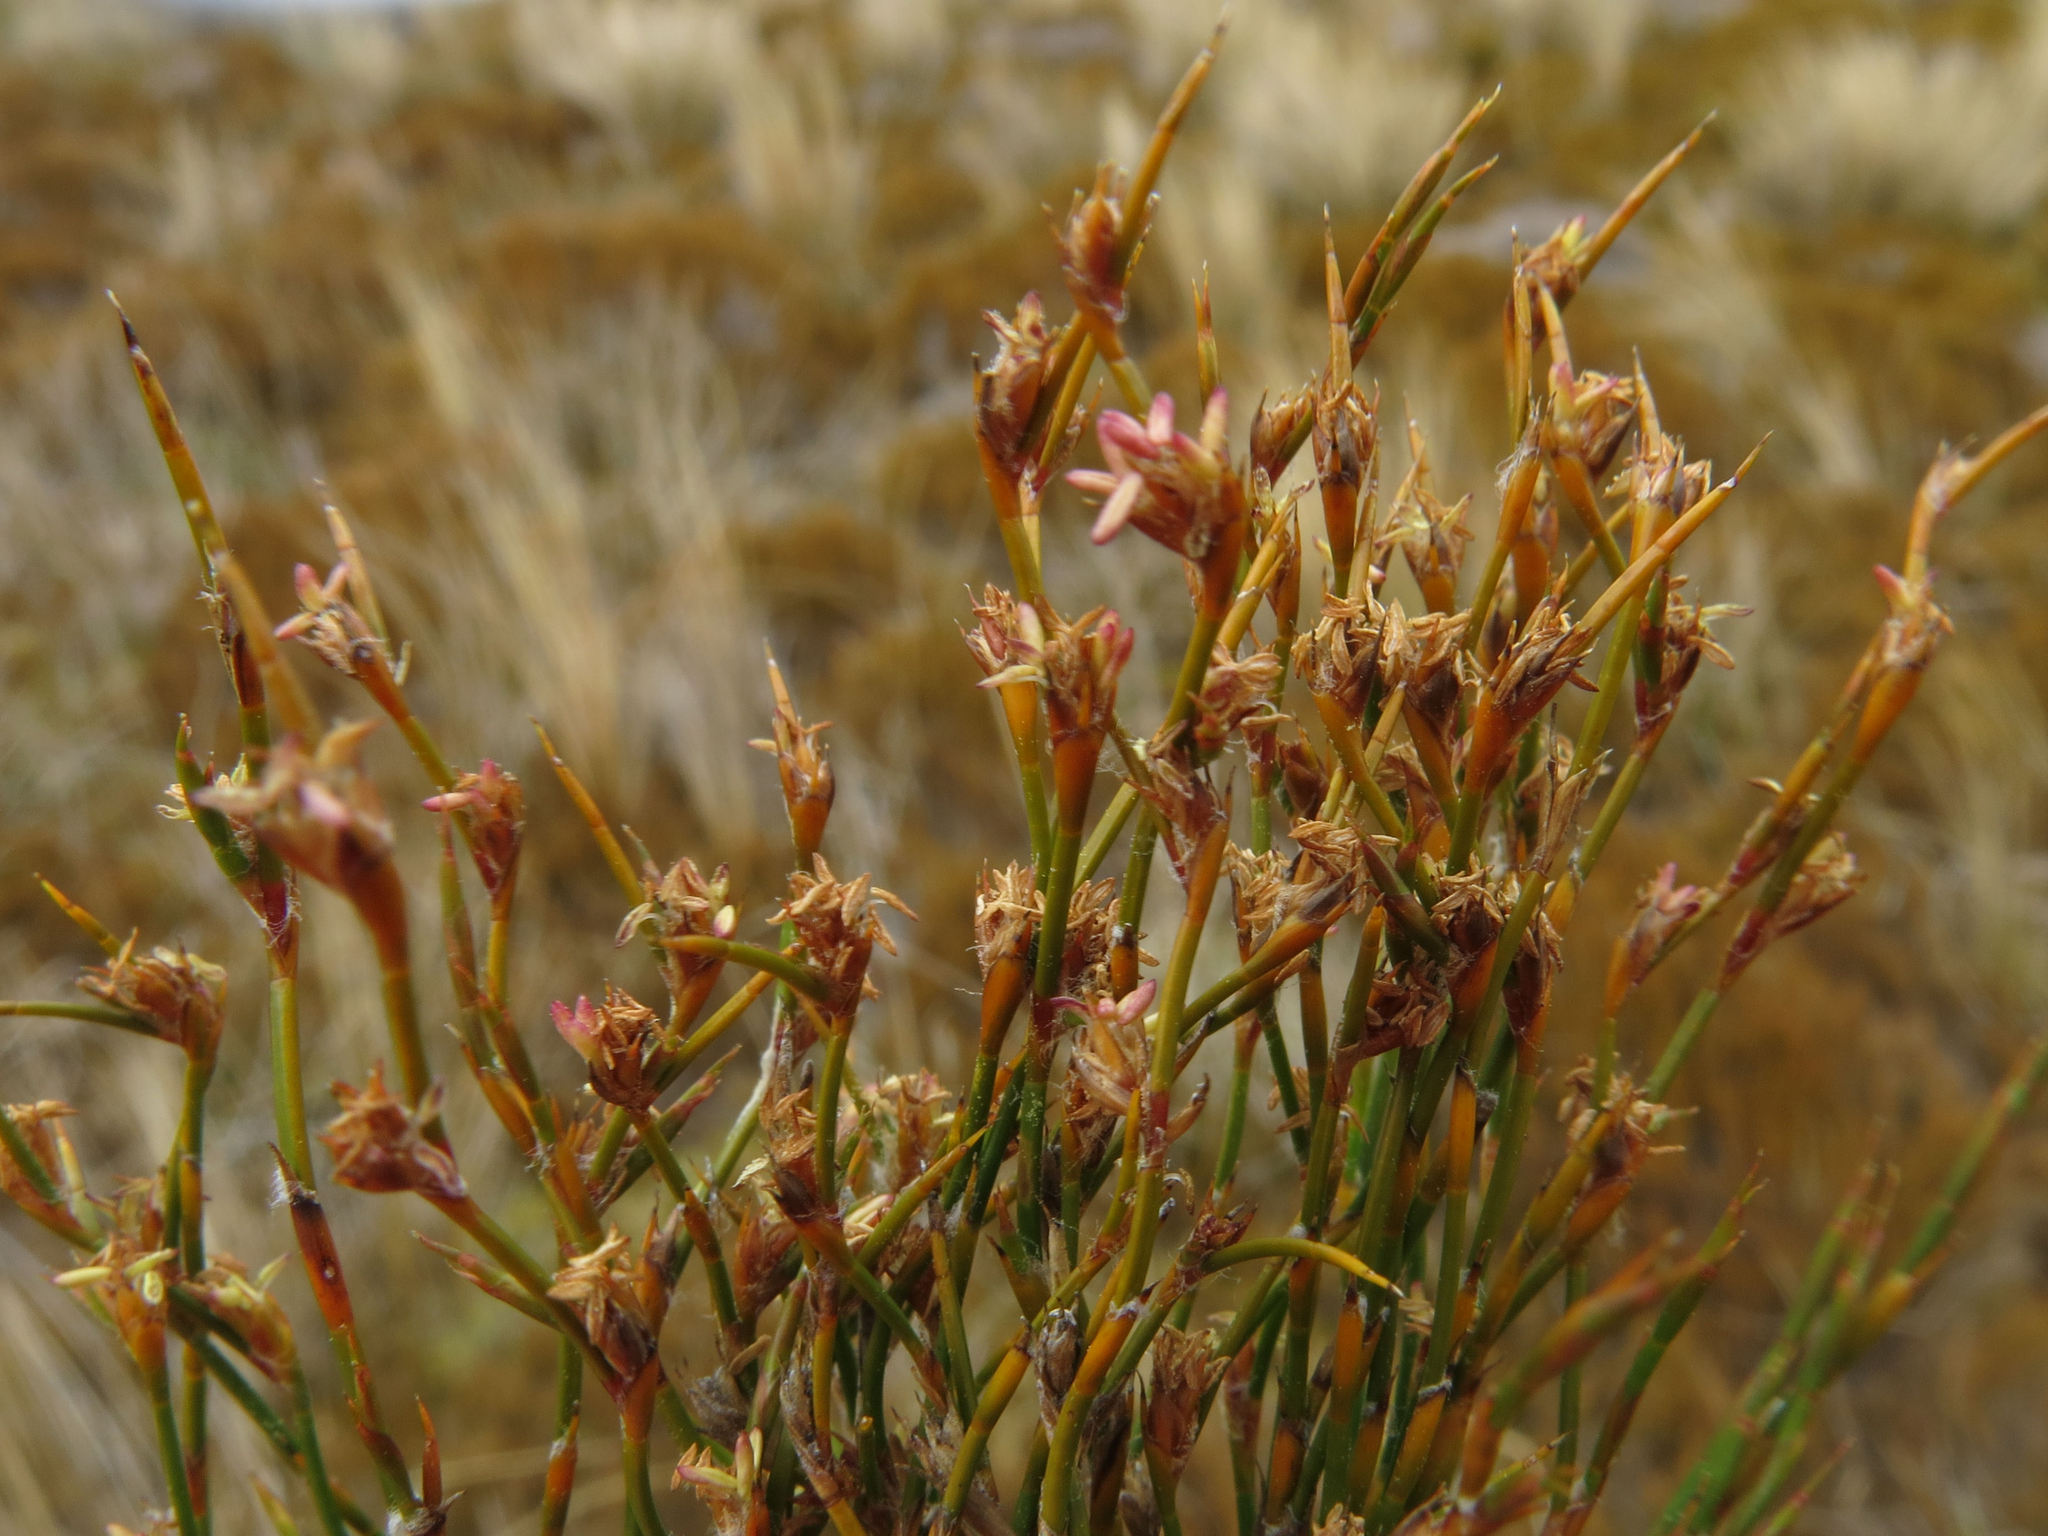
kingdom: Plantae
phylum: Tracheophyta
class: Liliopsida
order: Poales
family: Restionaceae
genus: Empodisma
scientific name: Empodisma minus
